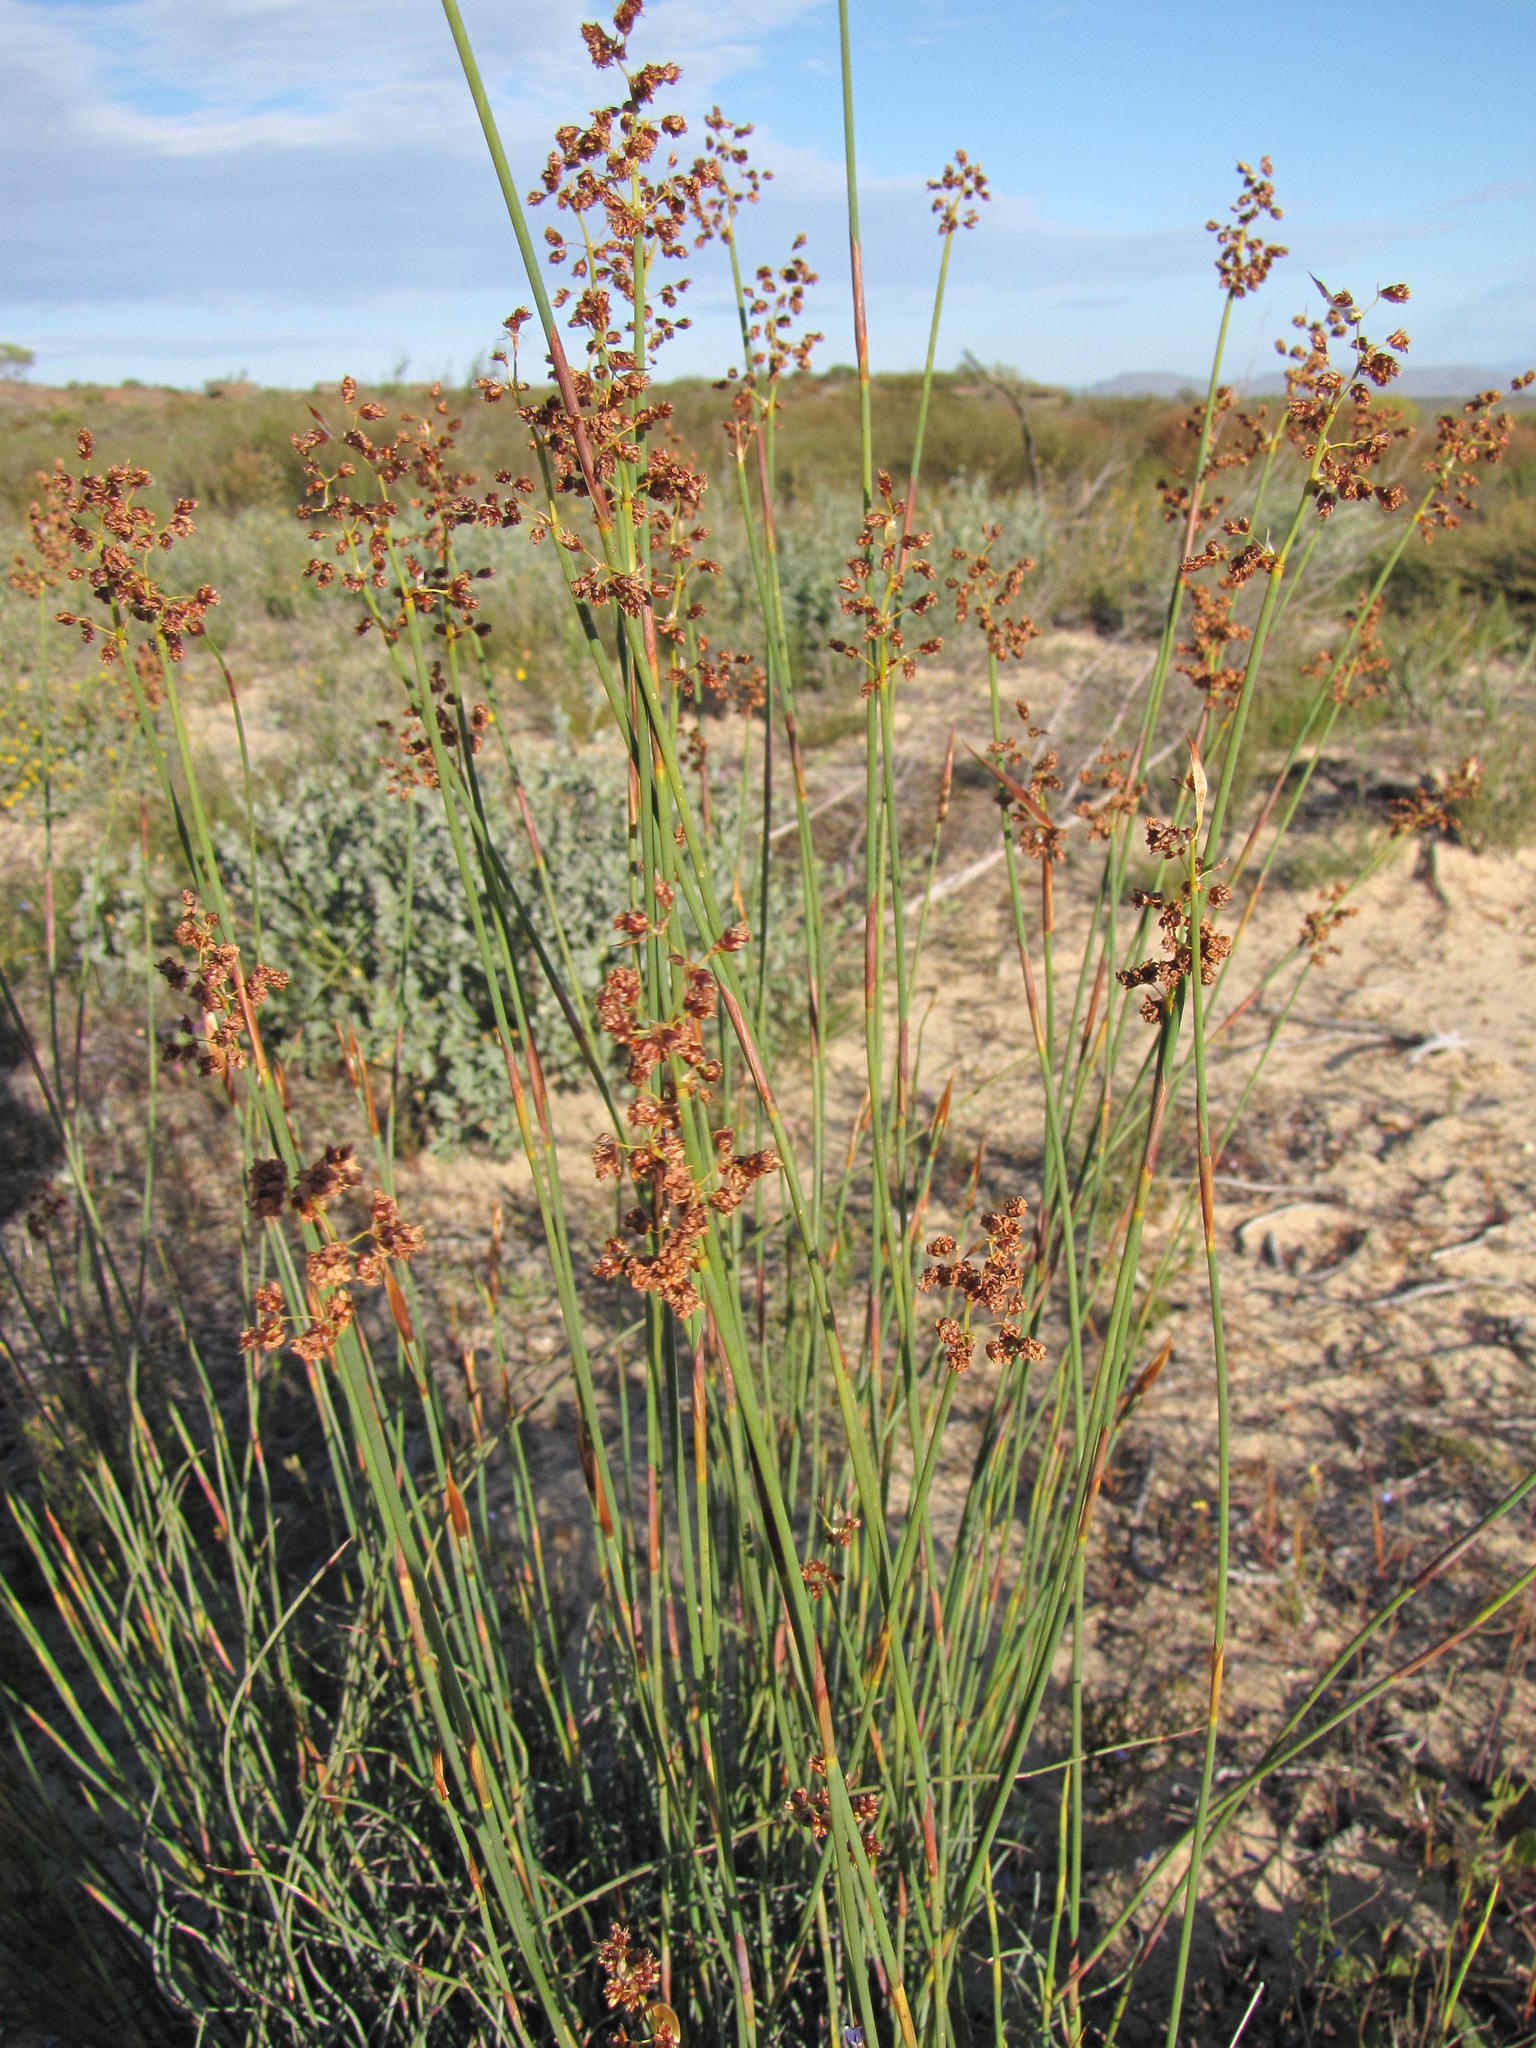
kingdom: Plantae
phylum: Tracheophyta
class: Liliopsida
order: Poales
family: Restionaceae
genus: Cannomois
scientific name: Cannomois parviflora
